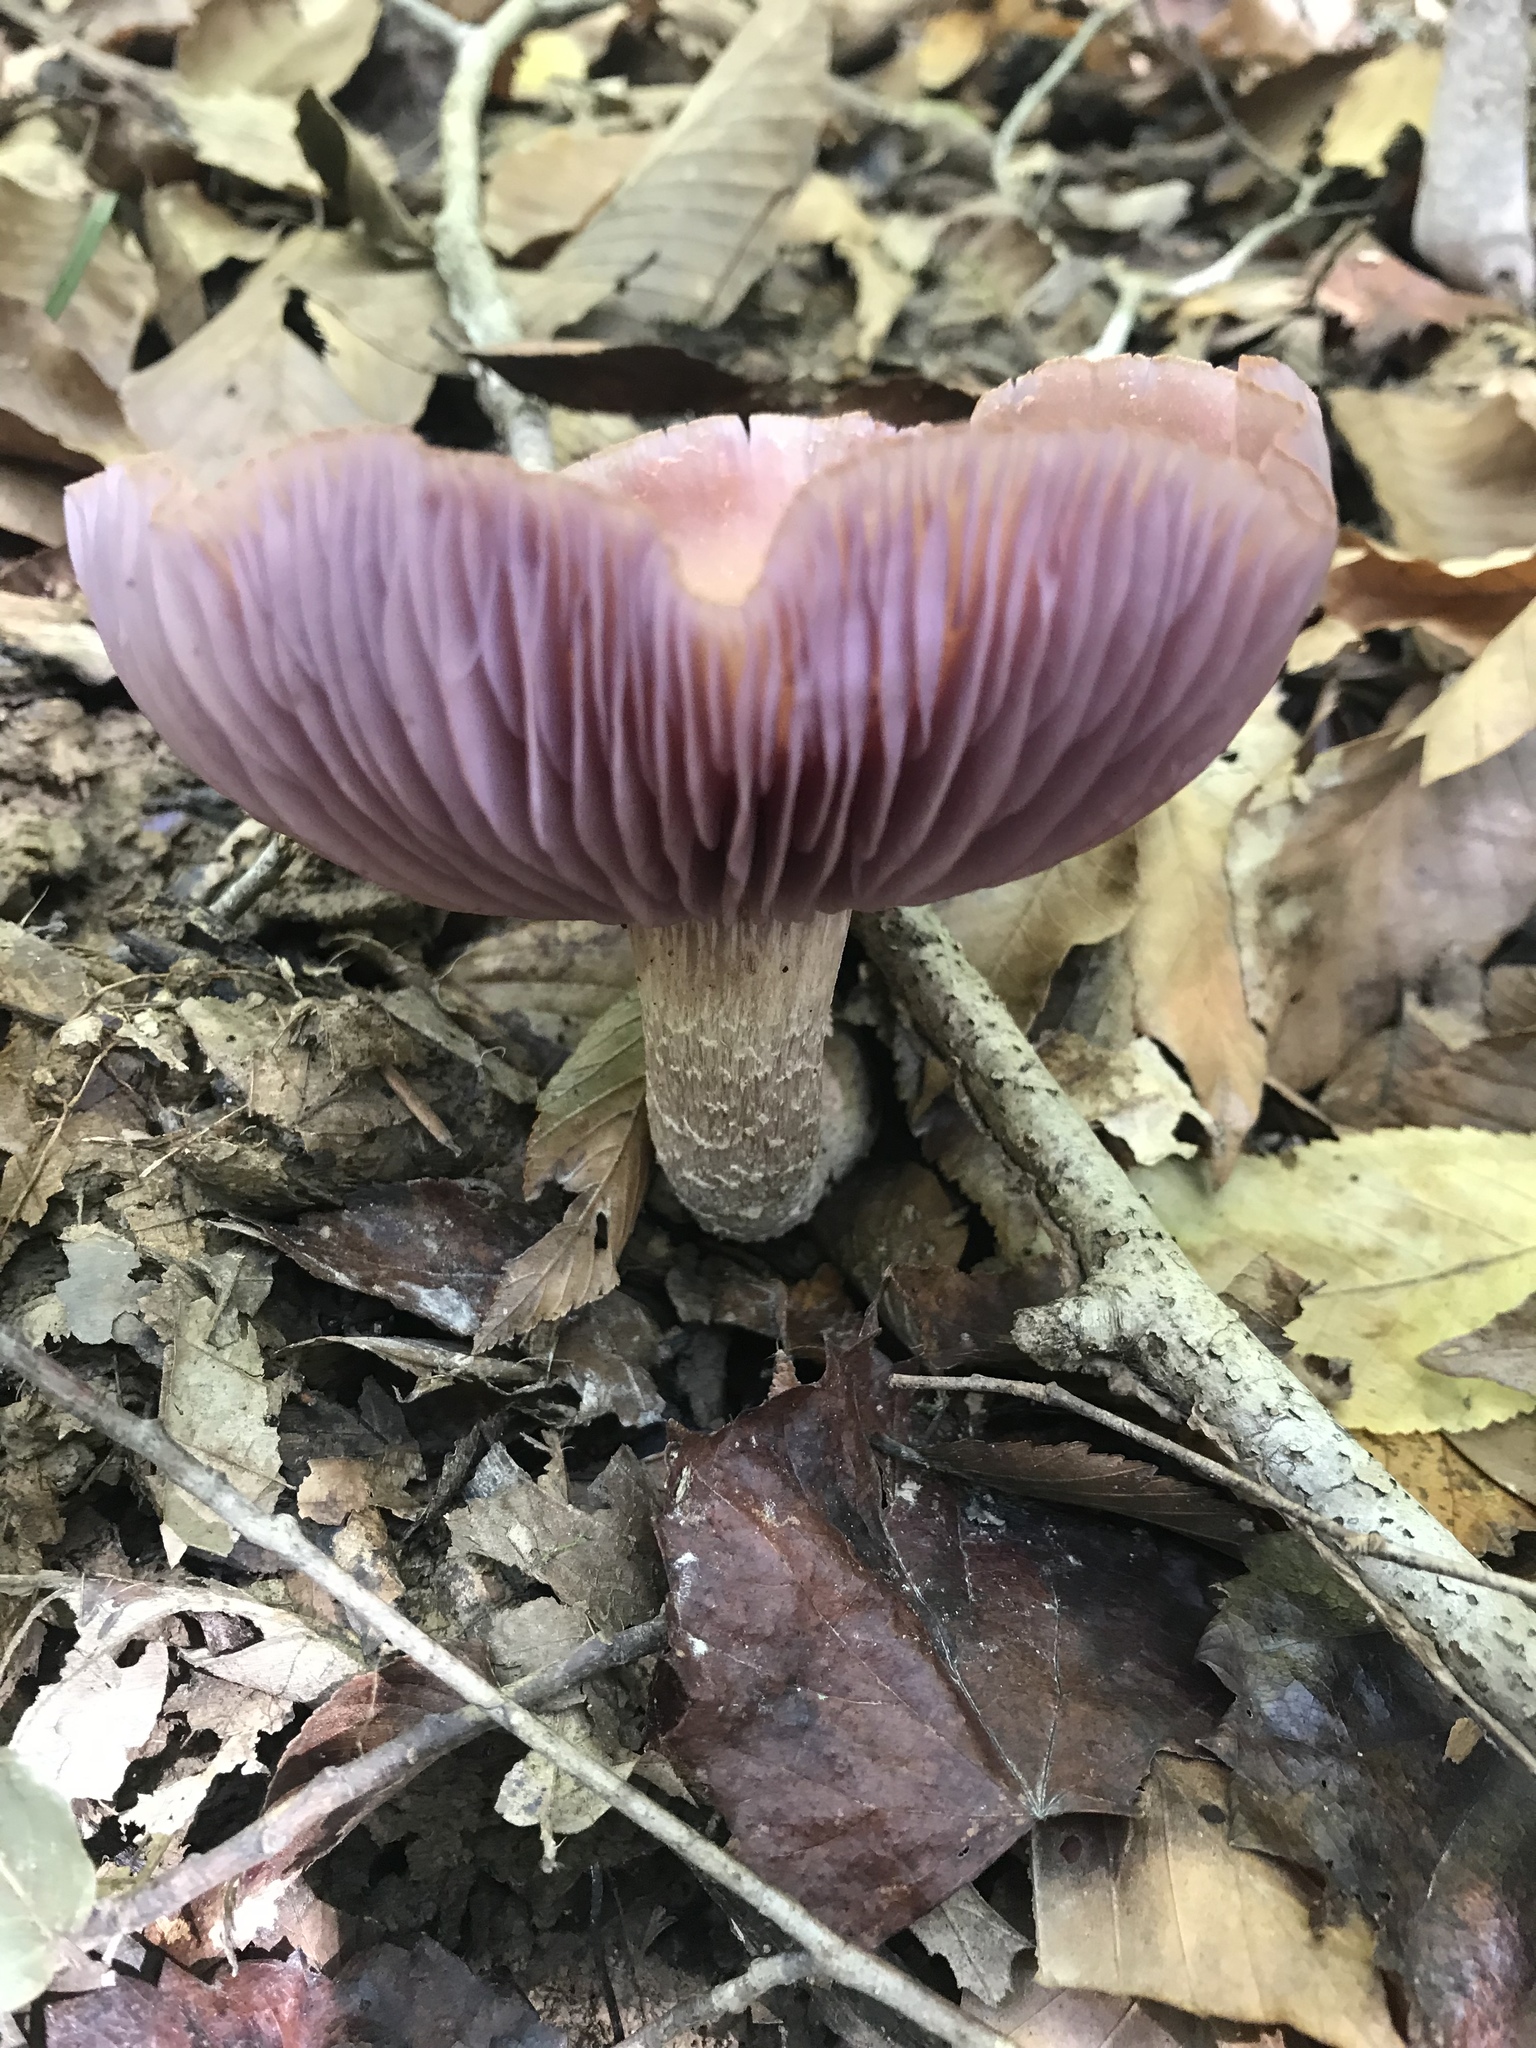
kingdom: Fungi
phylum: Basidiomycota
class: Agaricomycetes
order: Agaricales
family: Hydnangiaceae
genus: Laccaria
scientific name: Laccaria ochropurpurea
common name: Purple laccaria
